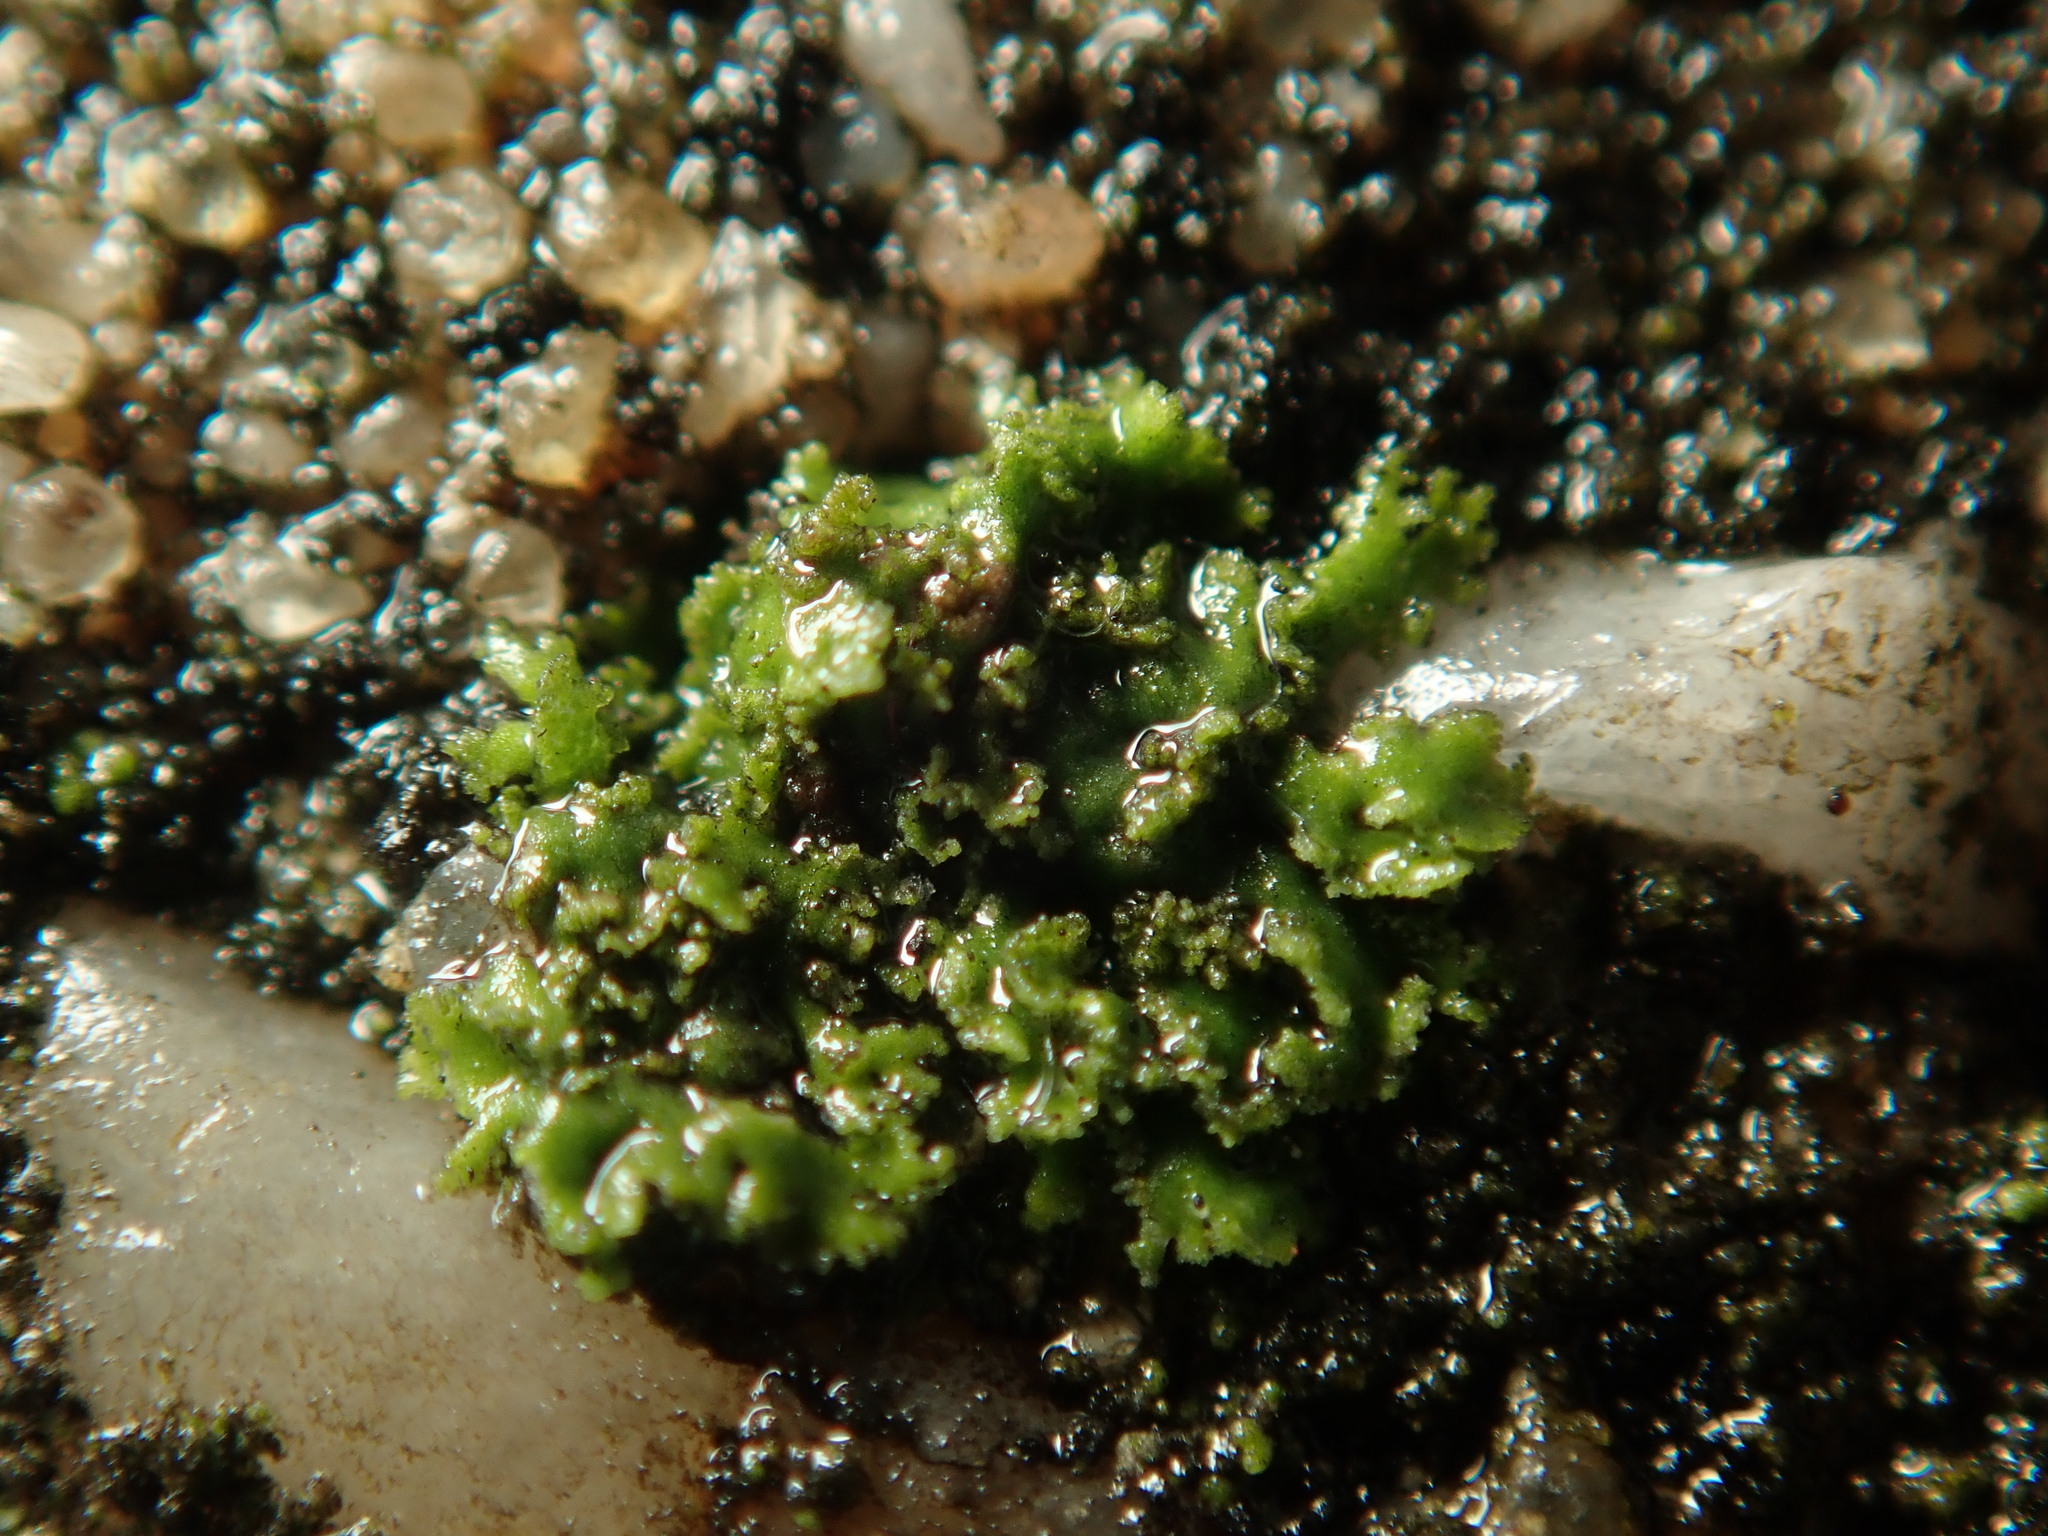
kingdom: Fungi
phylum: Ascomycota
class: Lecanoromycetes
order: Caliciales
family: Physciaceae
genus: Physciella
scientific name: Physciella nigricans
